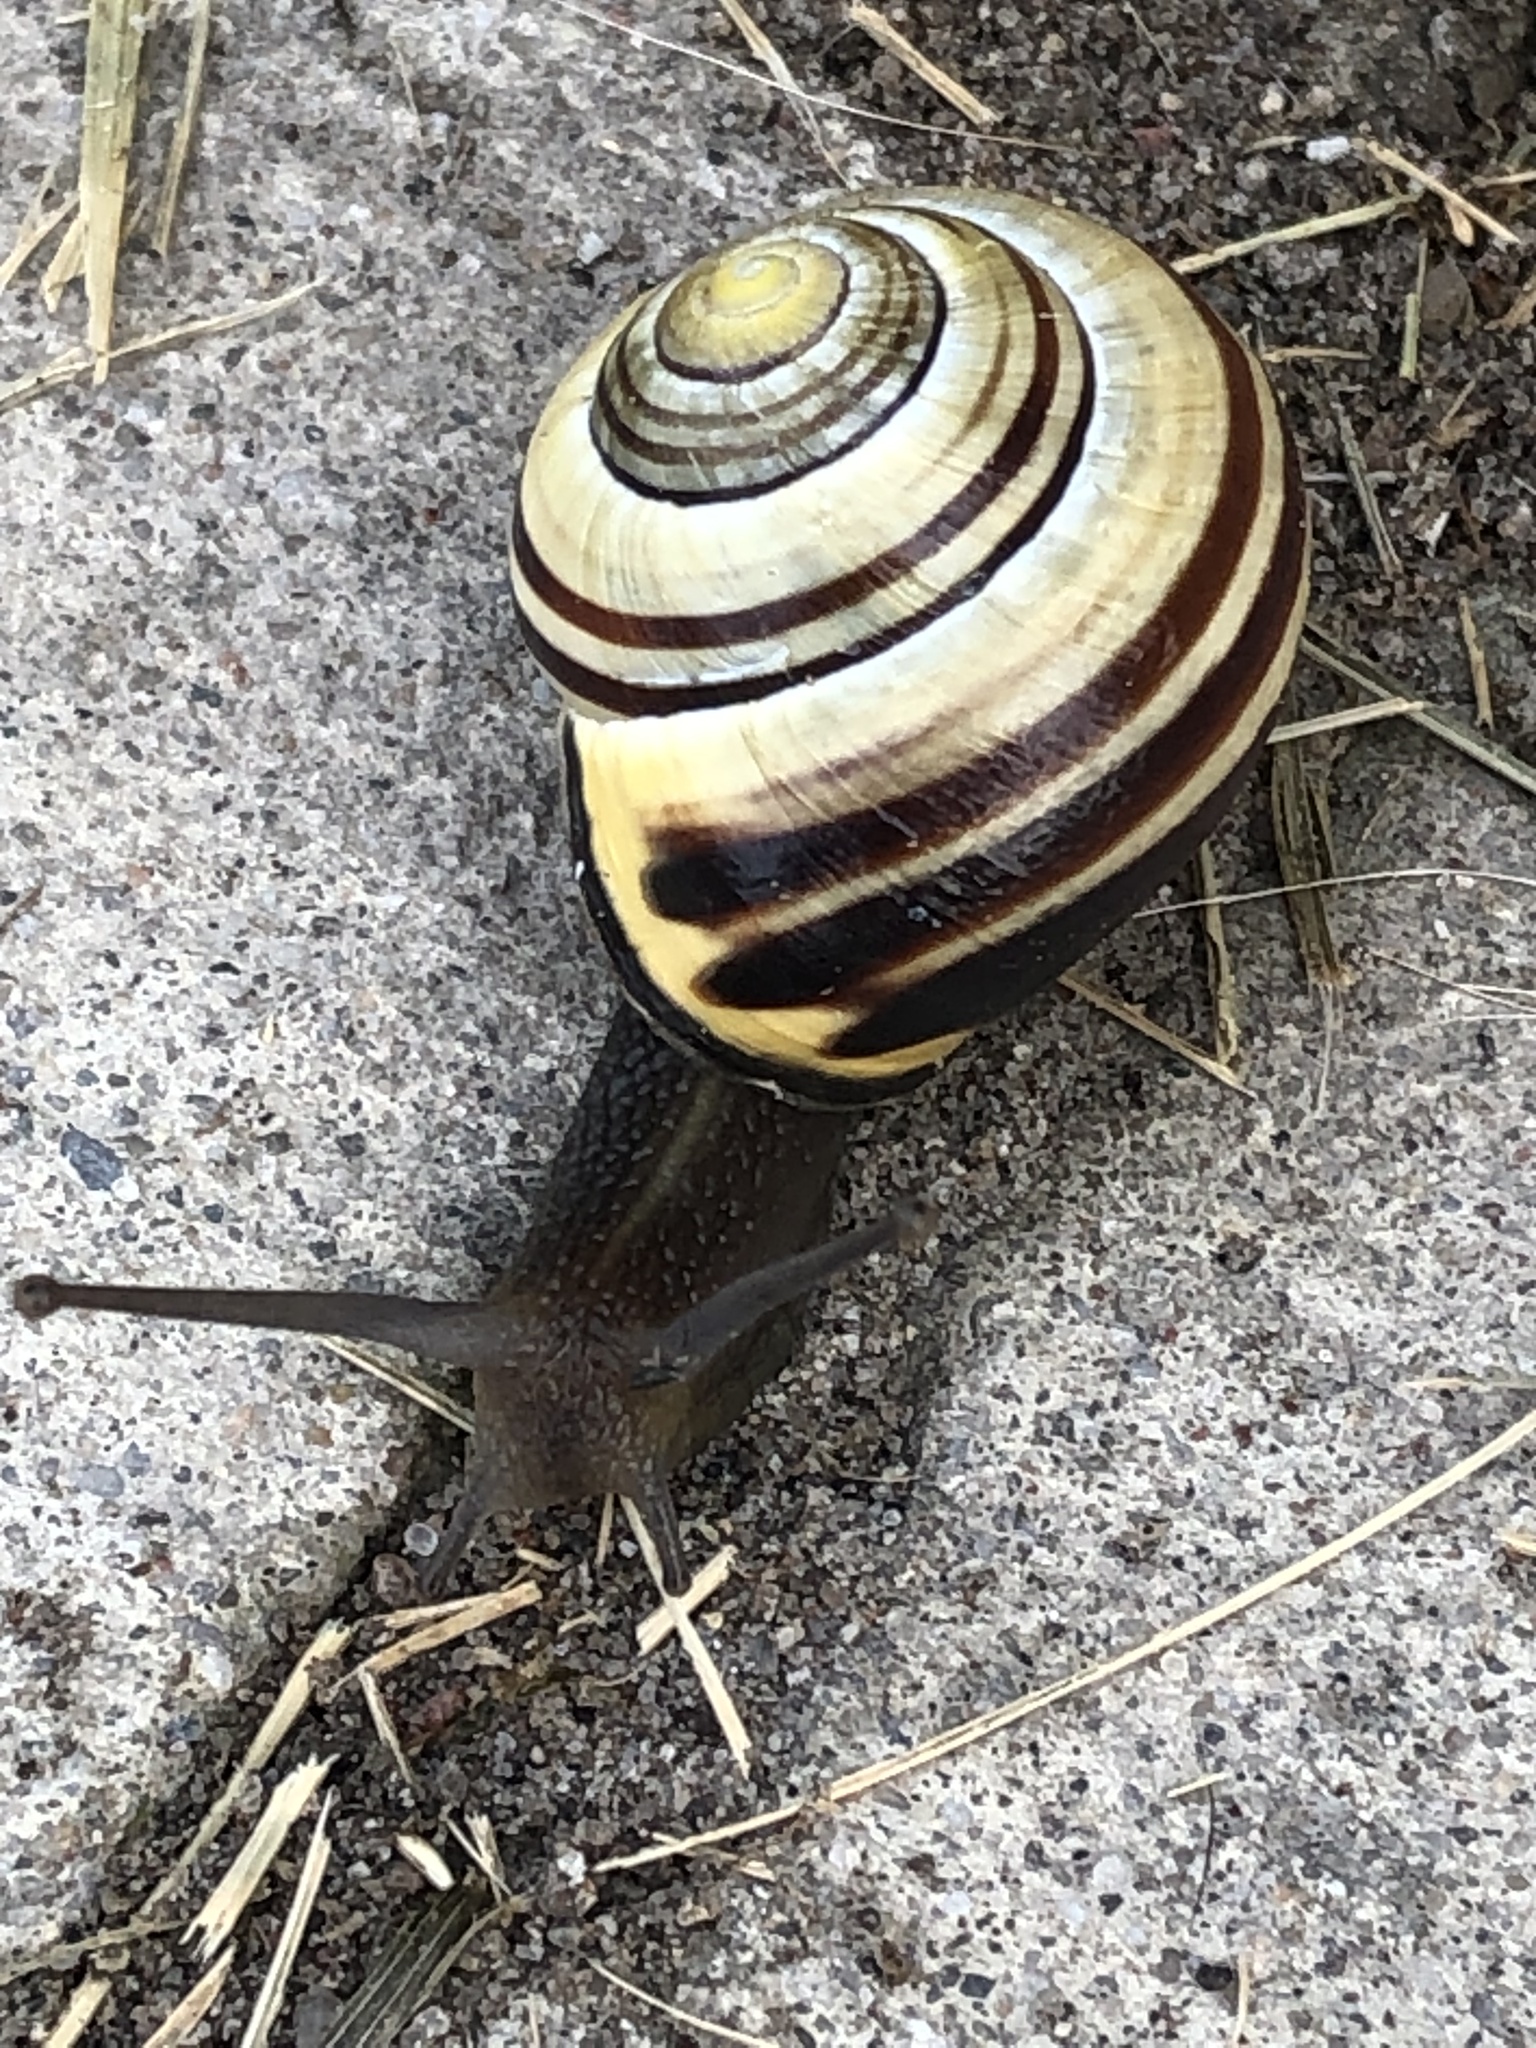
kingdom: Animalia
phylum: Mollusca
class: Gastropoda
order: Stylommatophora
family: Helicidae
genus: Cepaea
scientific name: Cepaea nemoralis
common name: Grovesnail
